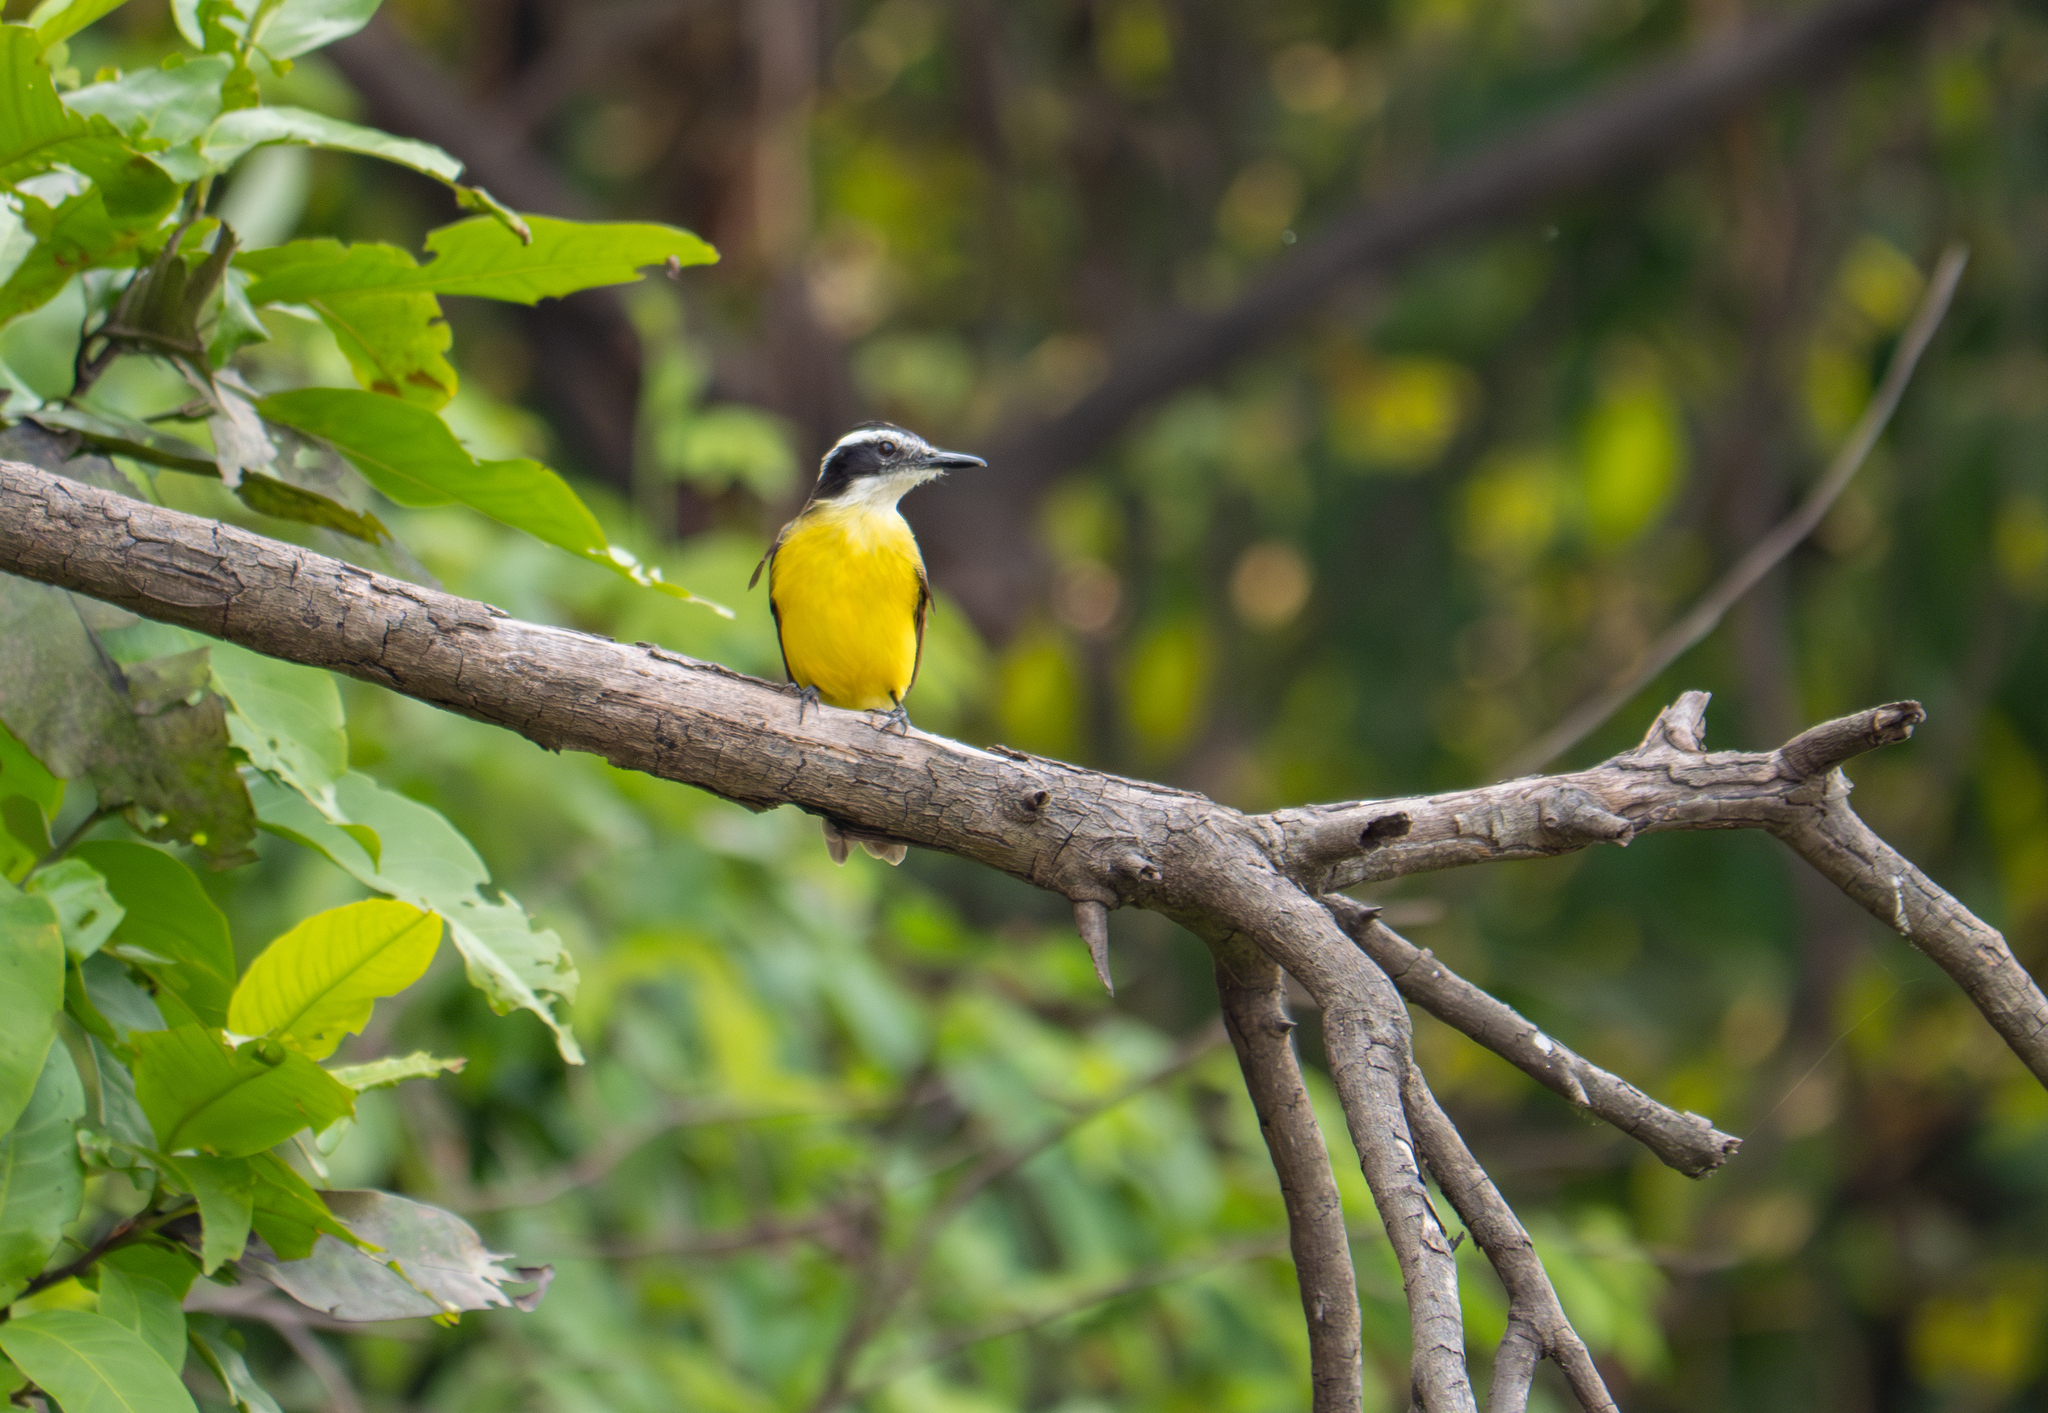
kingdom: Animalia
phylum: Chordata
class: Aves
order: Passeriformes
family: Tyrannidae
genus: Pitangus
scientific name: Pitangus lictor
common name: Lesser kiskadee
